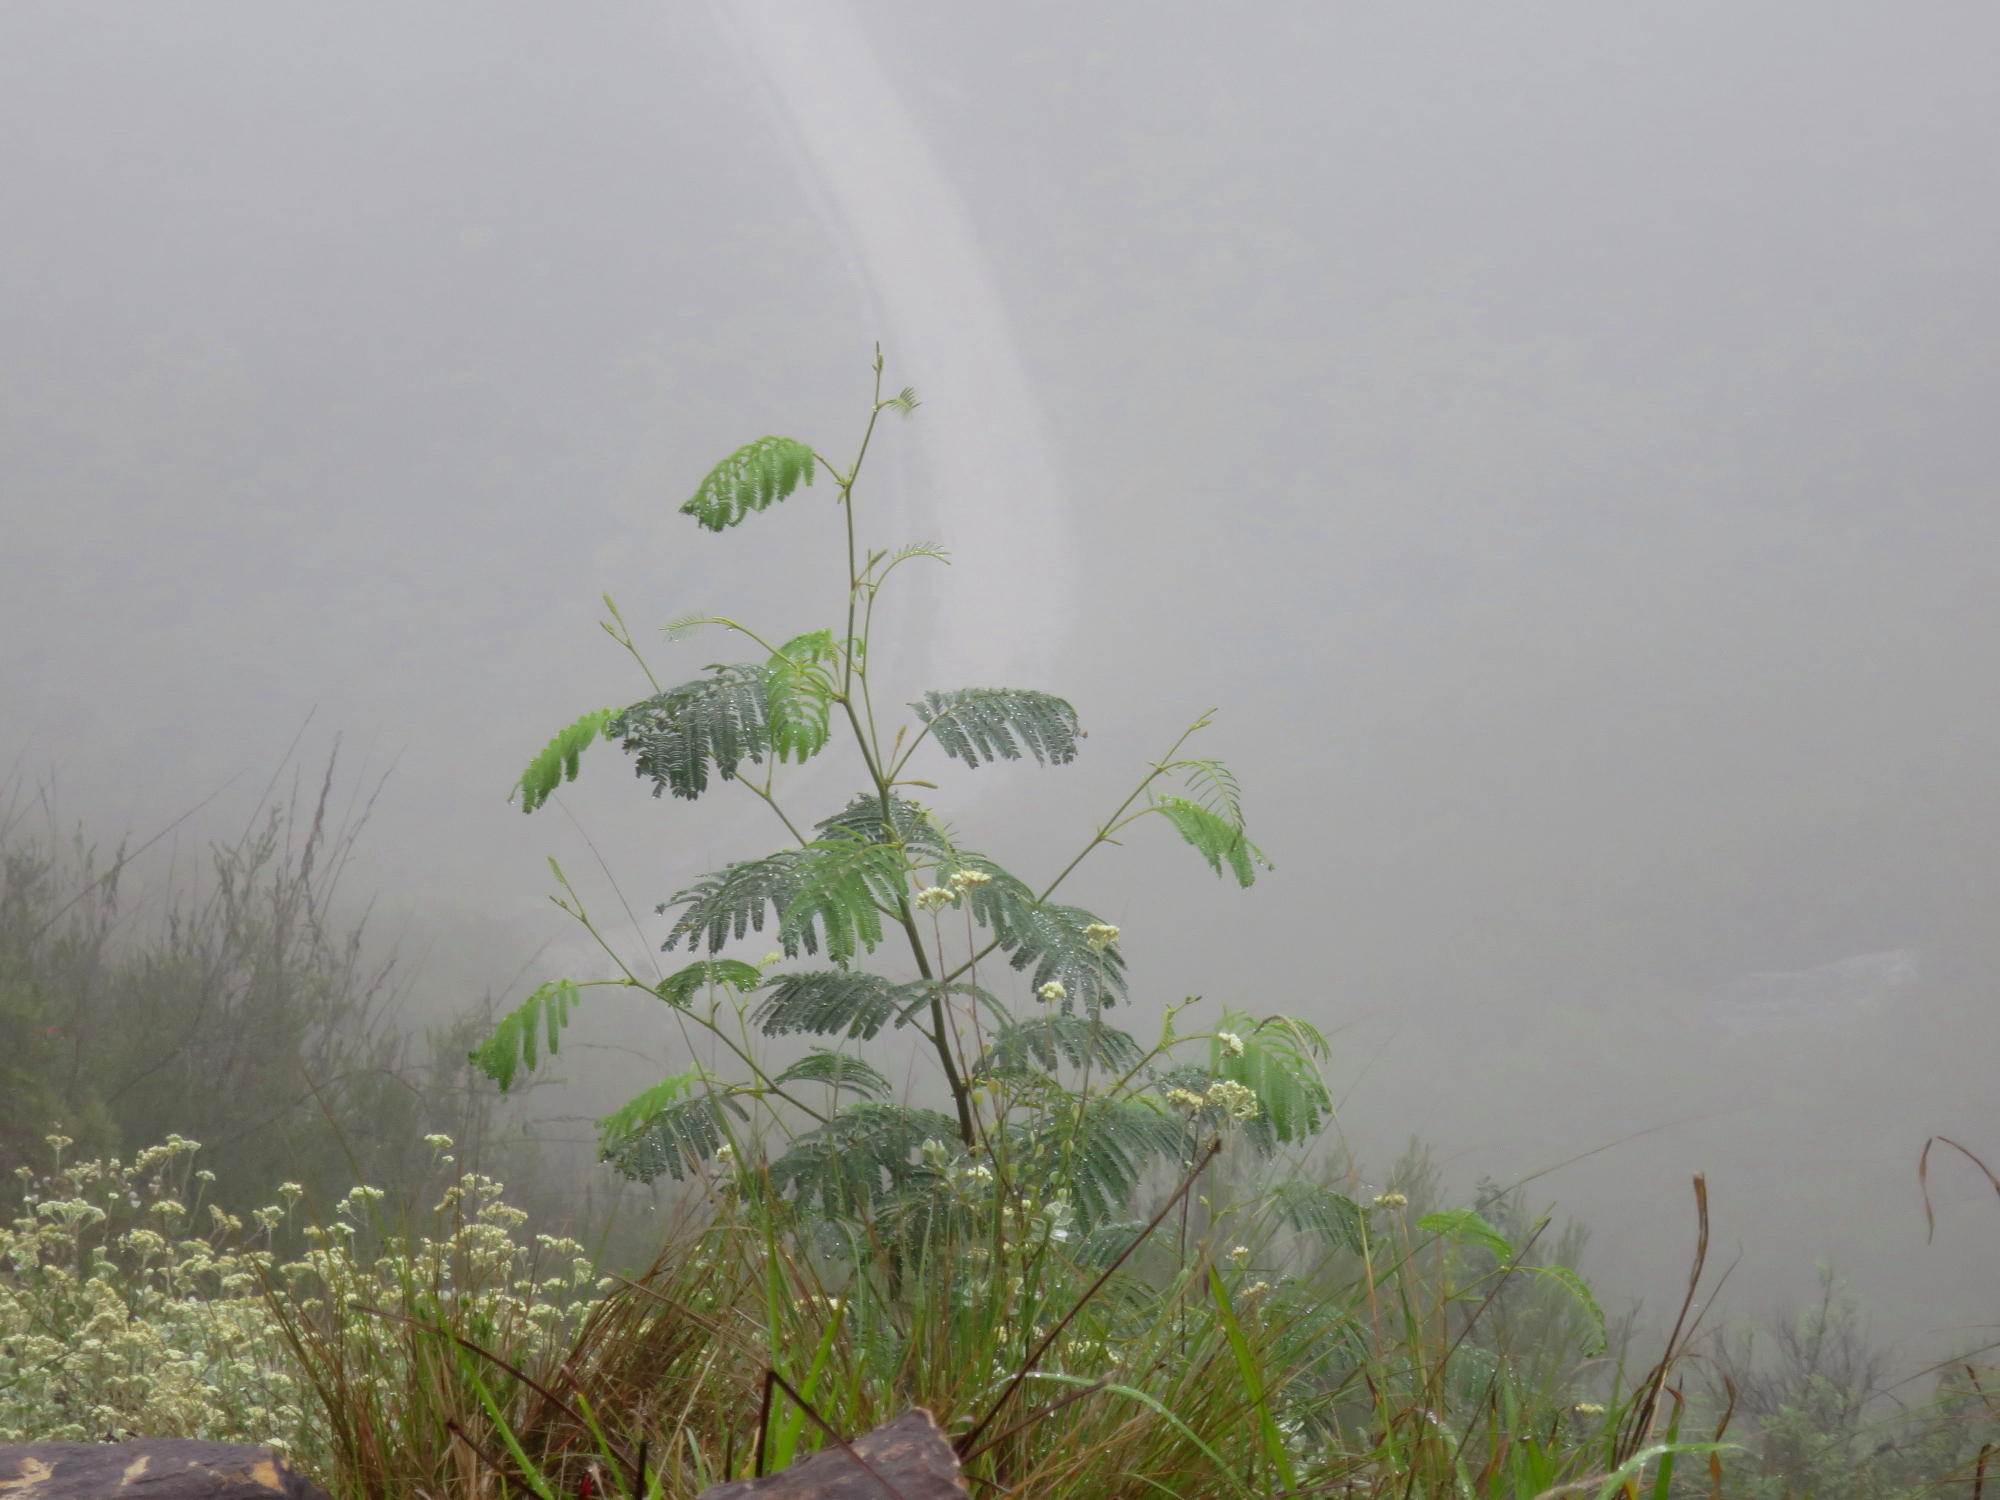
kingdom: Plantae
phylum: Tracheophyta
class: Magnoliopsida
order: Fabales
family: Fabaceae
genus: Paraserianthes
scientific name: Paraserianthes lophantha
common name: Plume albizia
